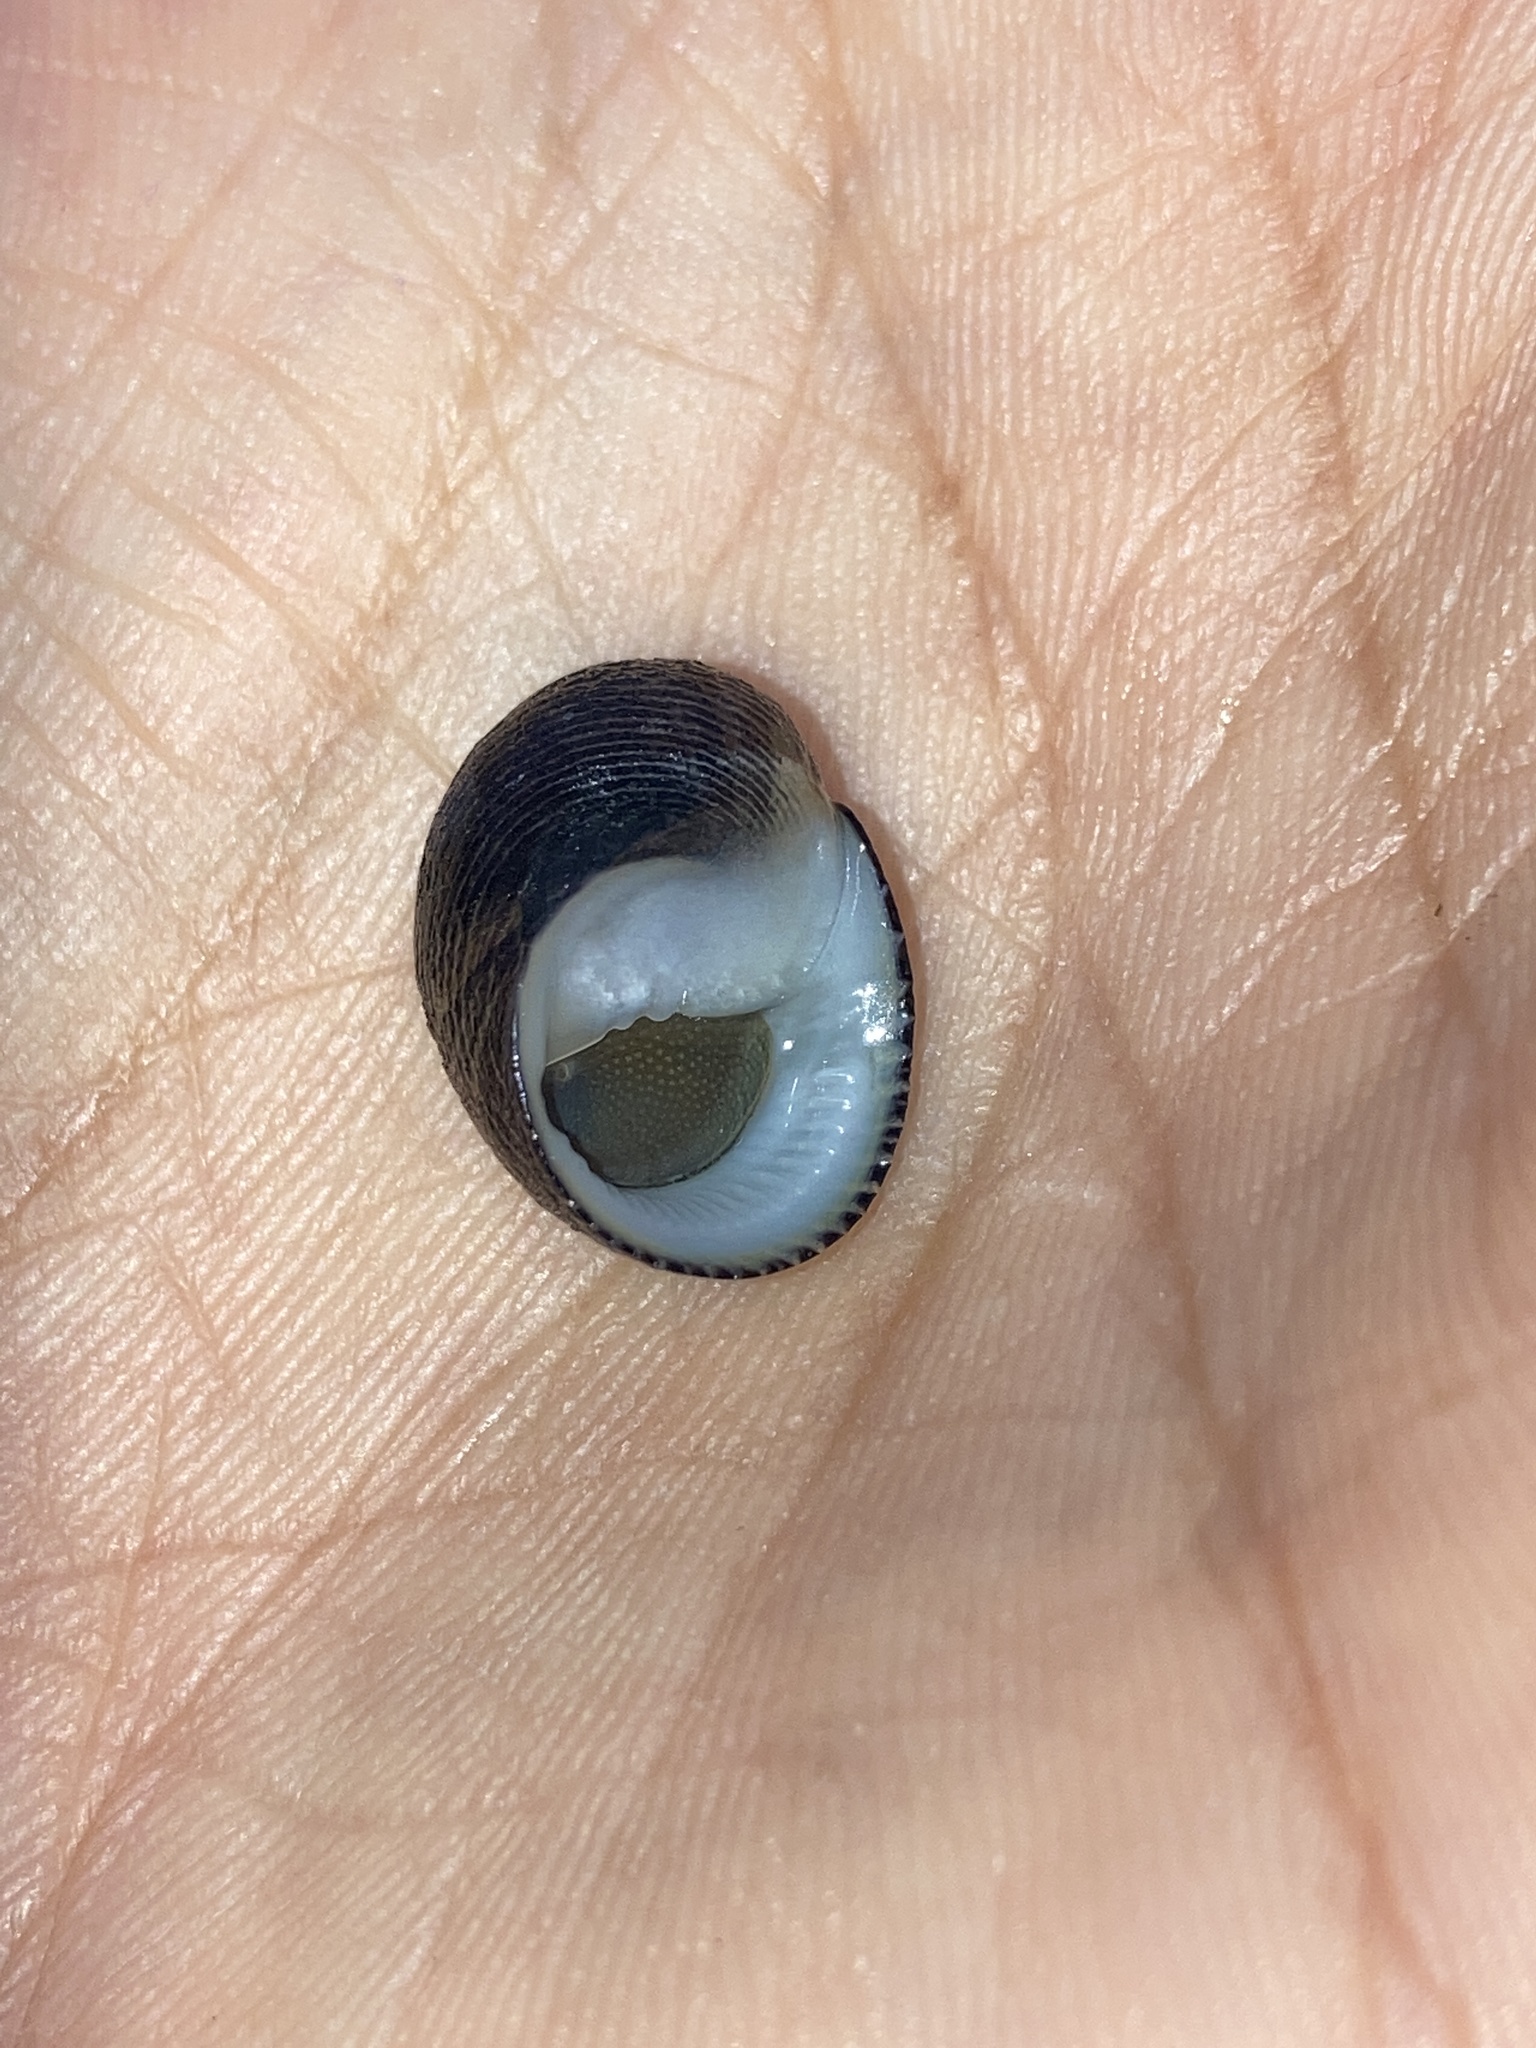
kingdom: Animalia
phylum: Mollusca
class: Gastropoda
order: Cycloneritida
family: Neritidae
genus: Nerita
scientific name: Nerita picea
